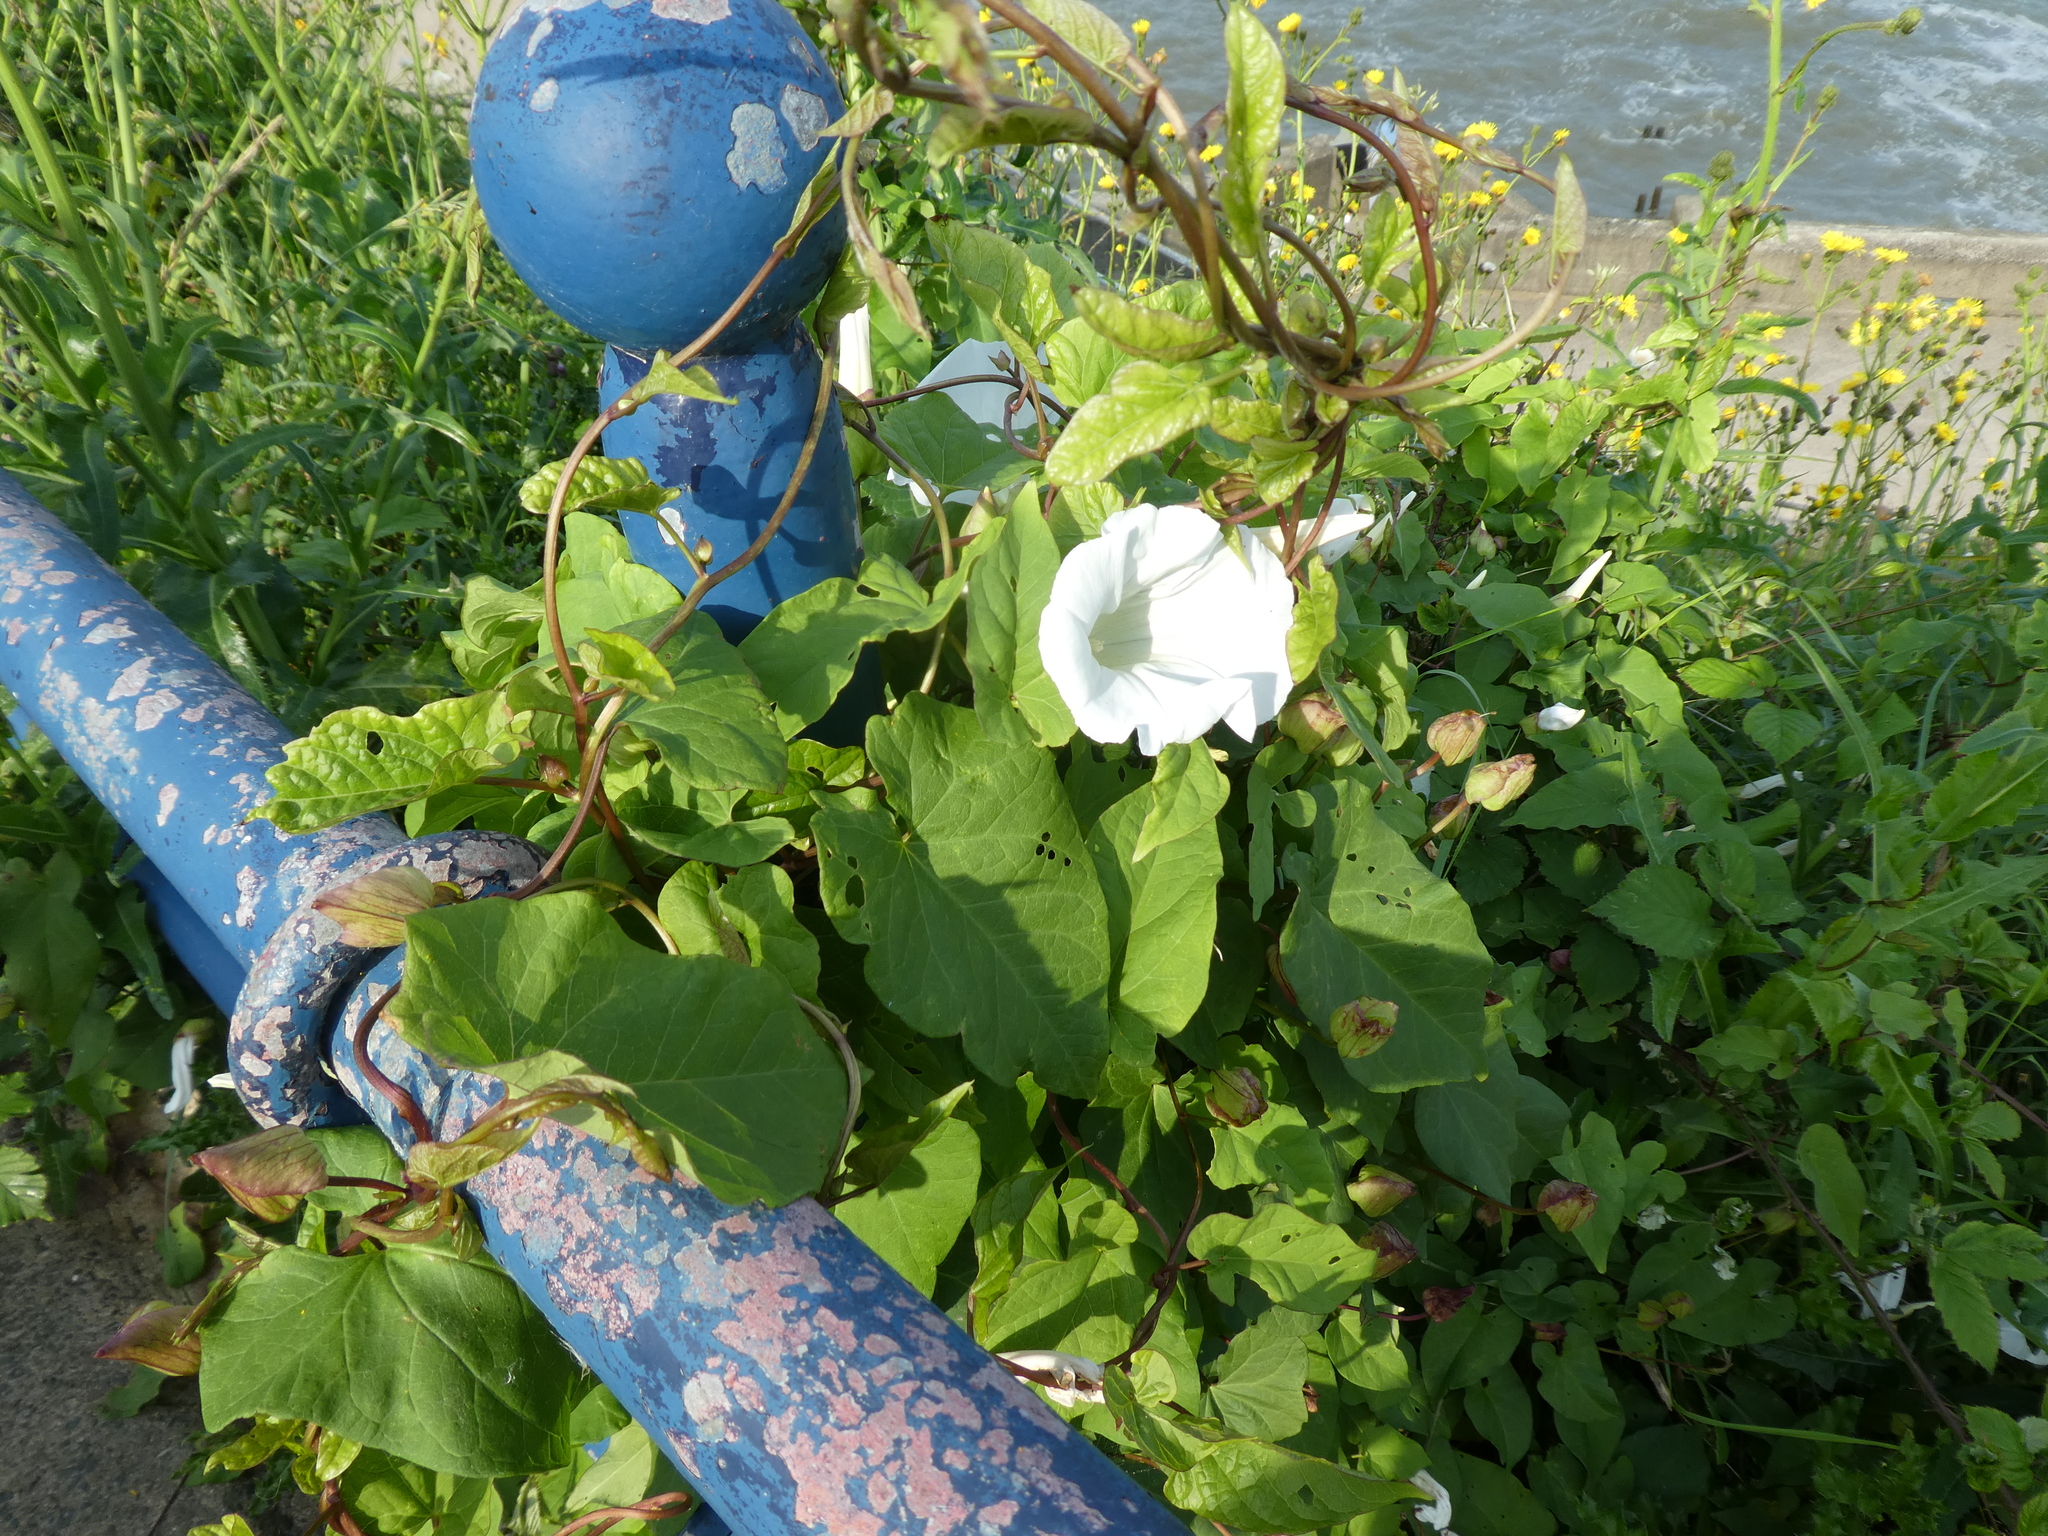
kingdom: Plantae
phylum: Tracheophyta
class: Magnoliopsida
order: Solanales
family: Convolvulaceae
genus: Calystegia
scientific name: Calystegia silvatica
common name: Large bindweed
